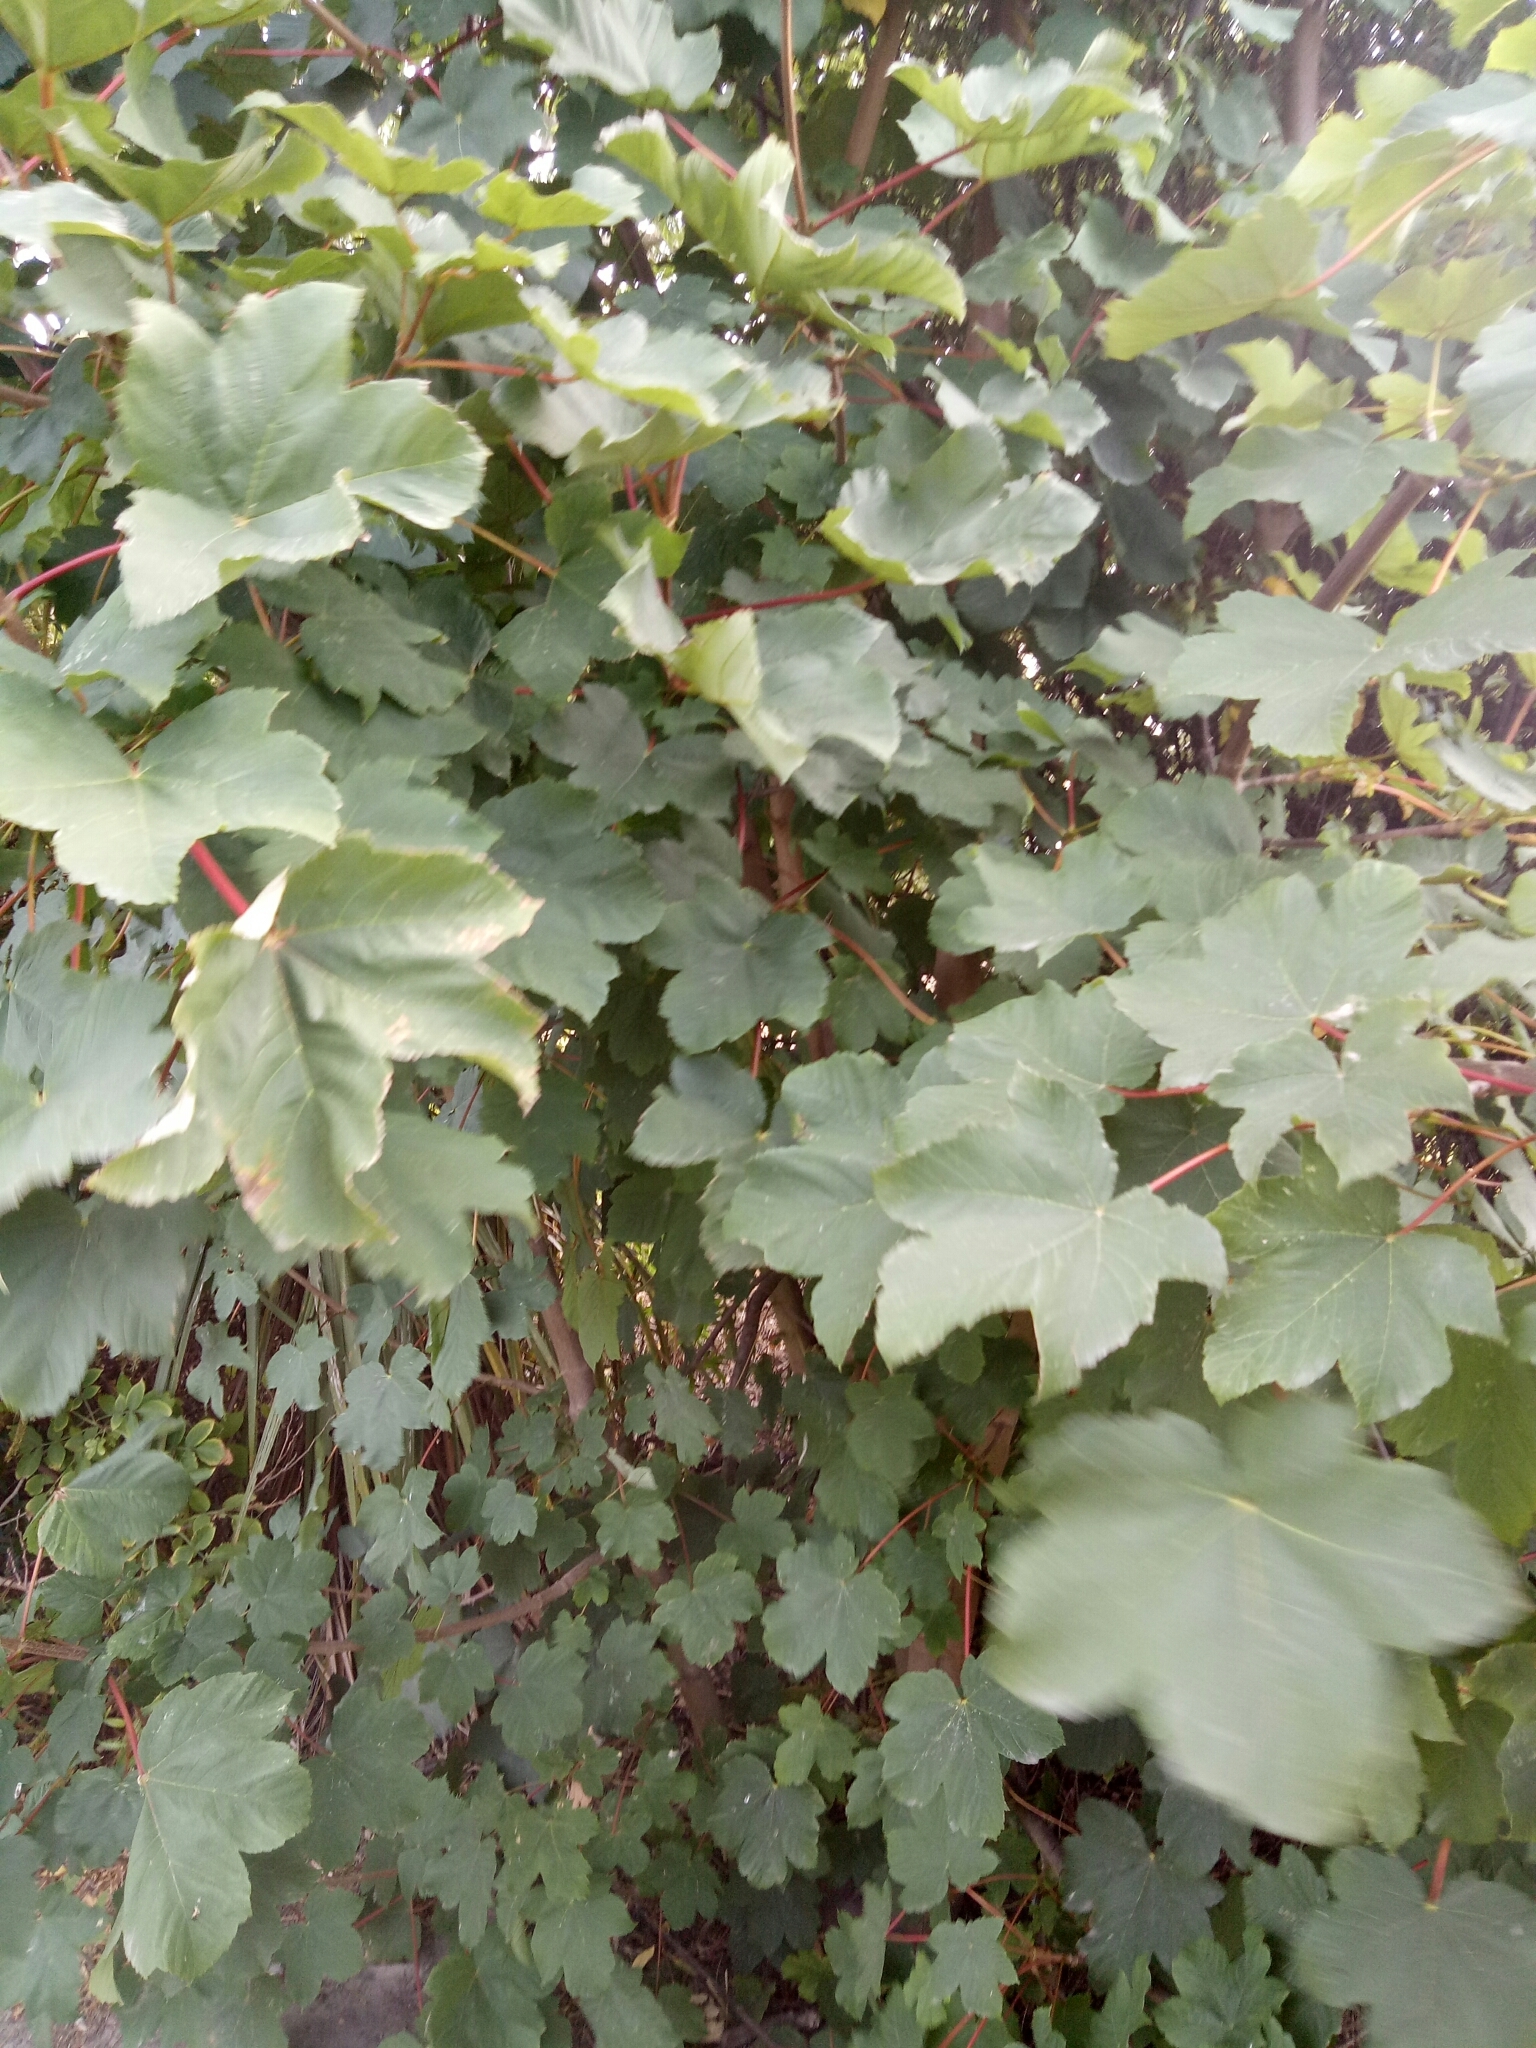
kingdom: Plantae
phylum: Tracheophyta
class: Magnoliopsida
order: Sapindales
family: Sapindaceae
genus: Acer
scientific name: Acer pseudoplatanus
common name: Sycamore
